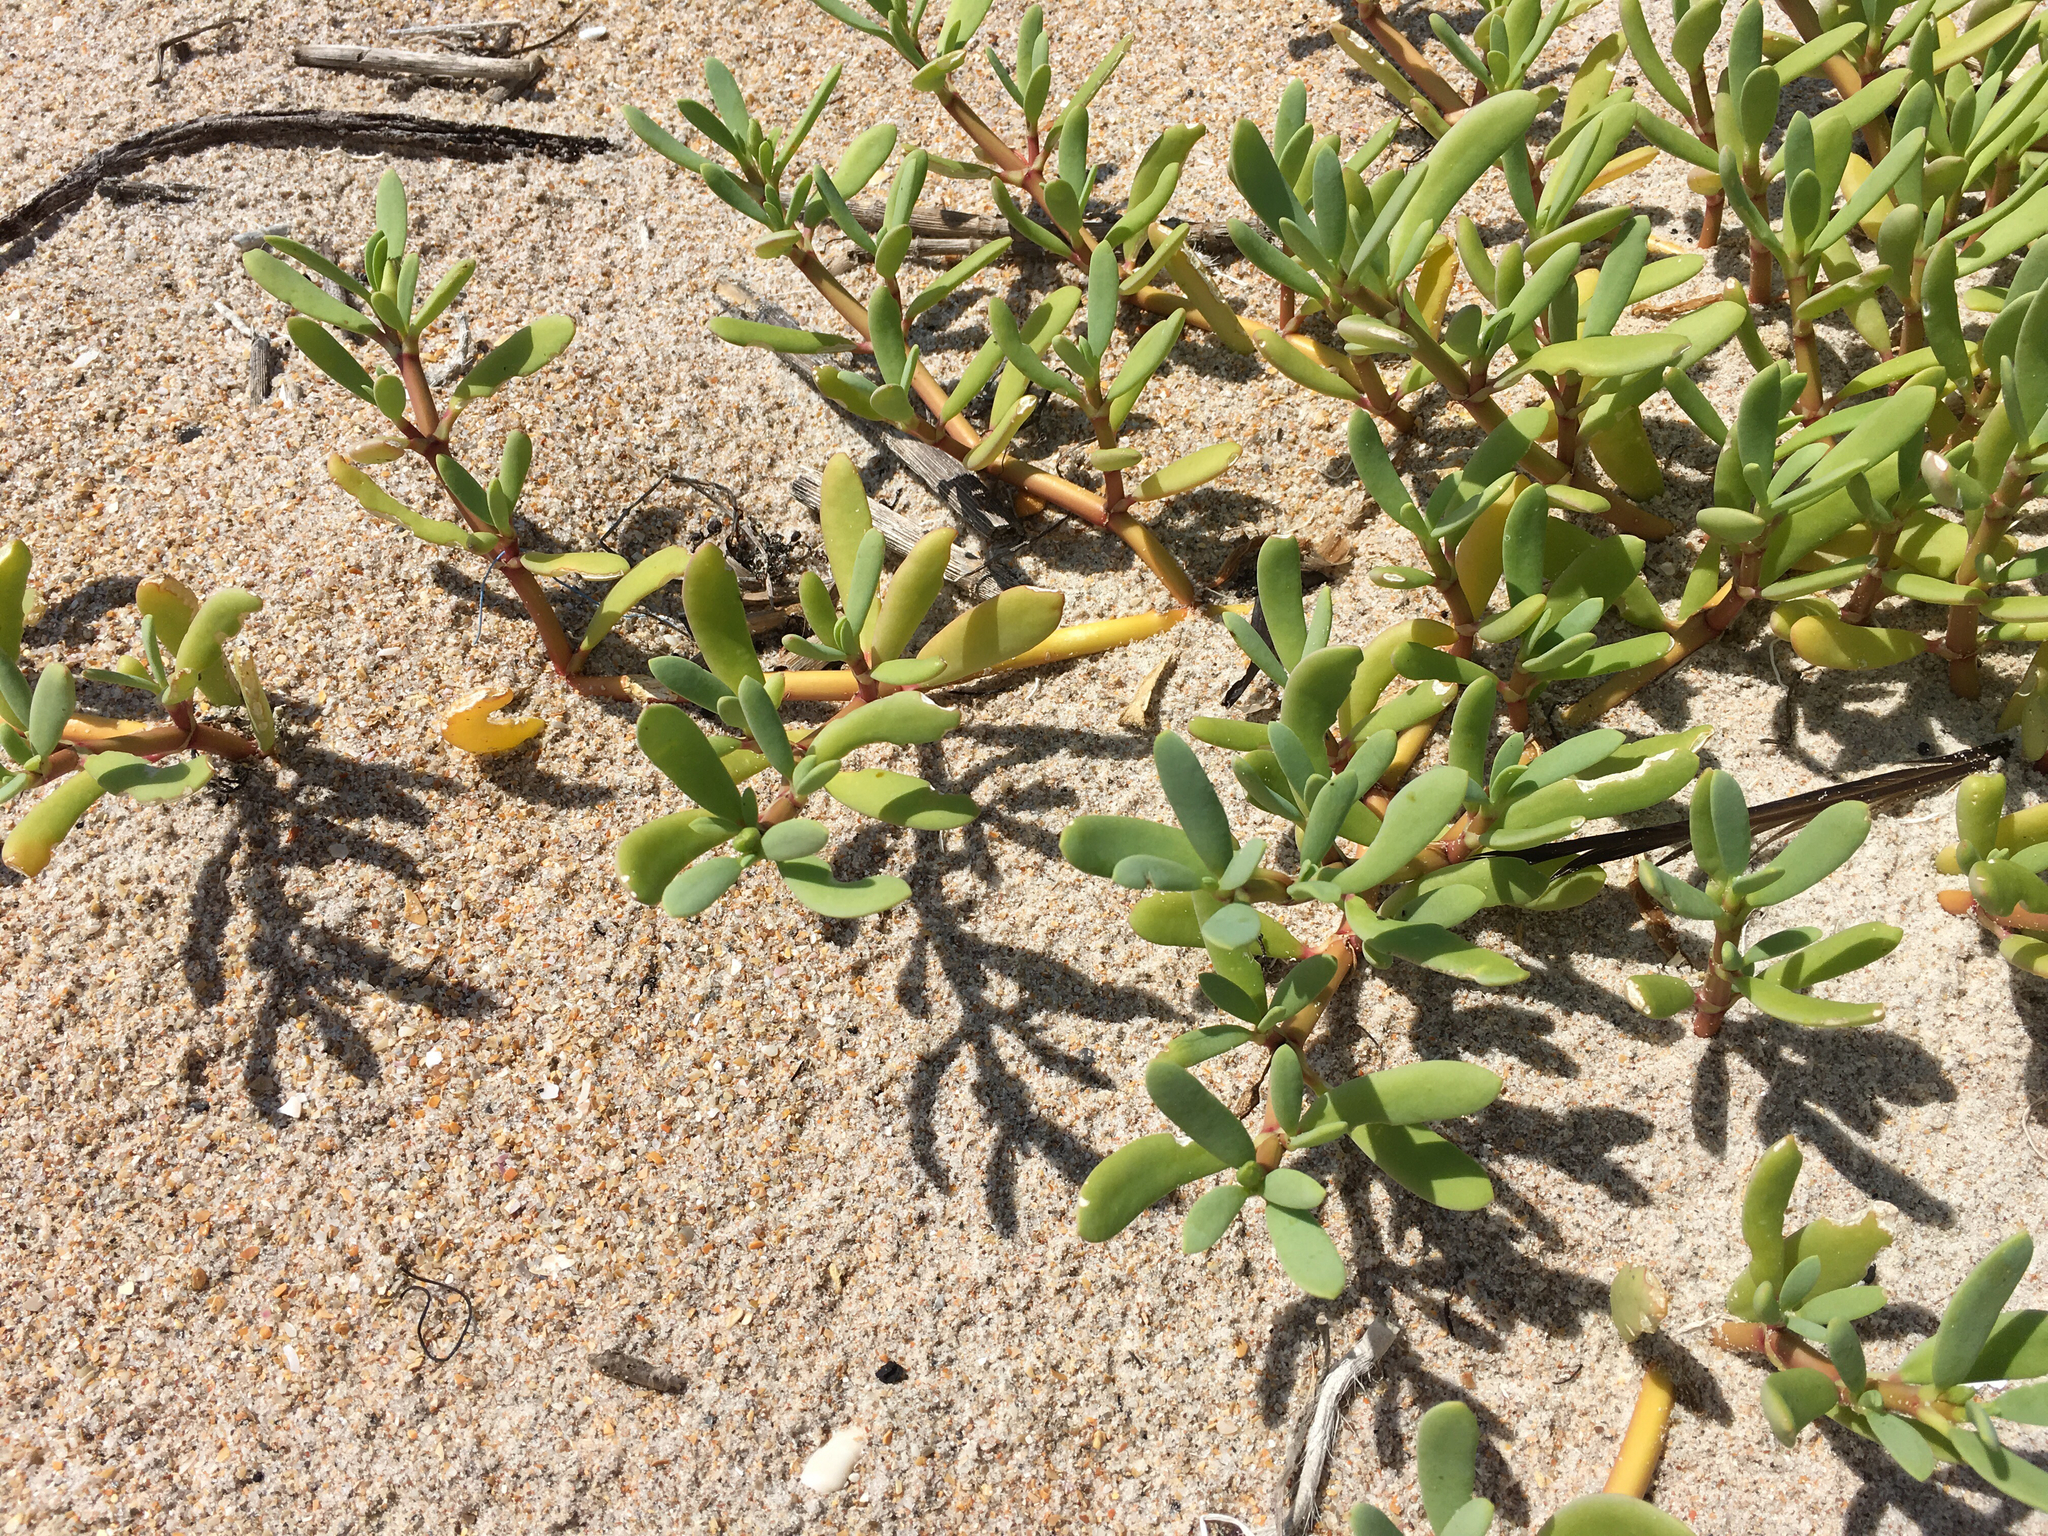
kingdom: Plantae
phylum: Tracheophyta
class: Magnoliopsida
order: Caryophyllales
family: Aizoaceae
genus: Sesuvium
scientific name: Sesuvium portulacastrum
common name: Sea-purslane
